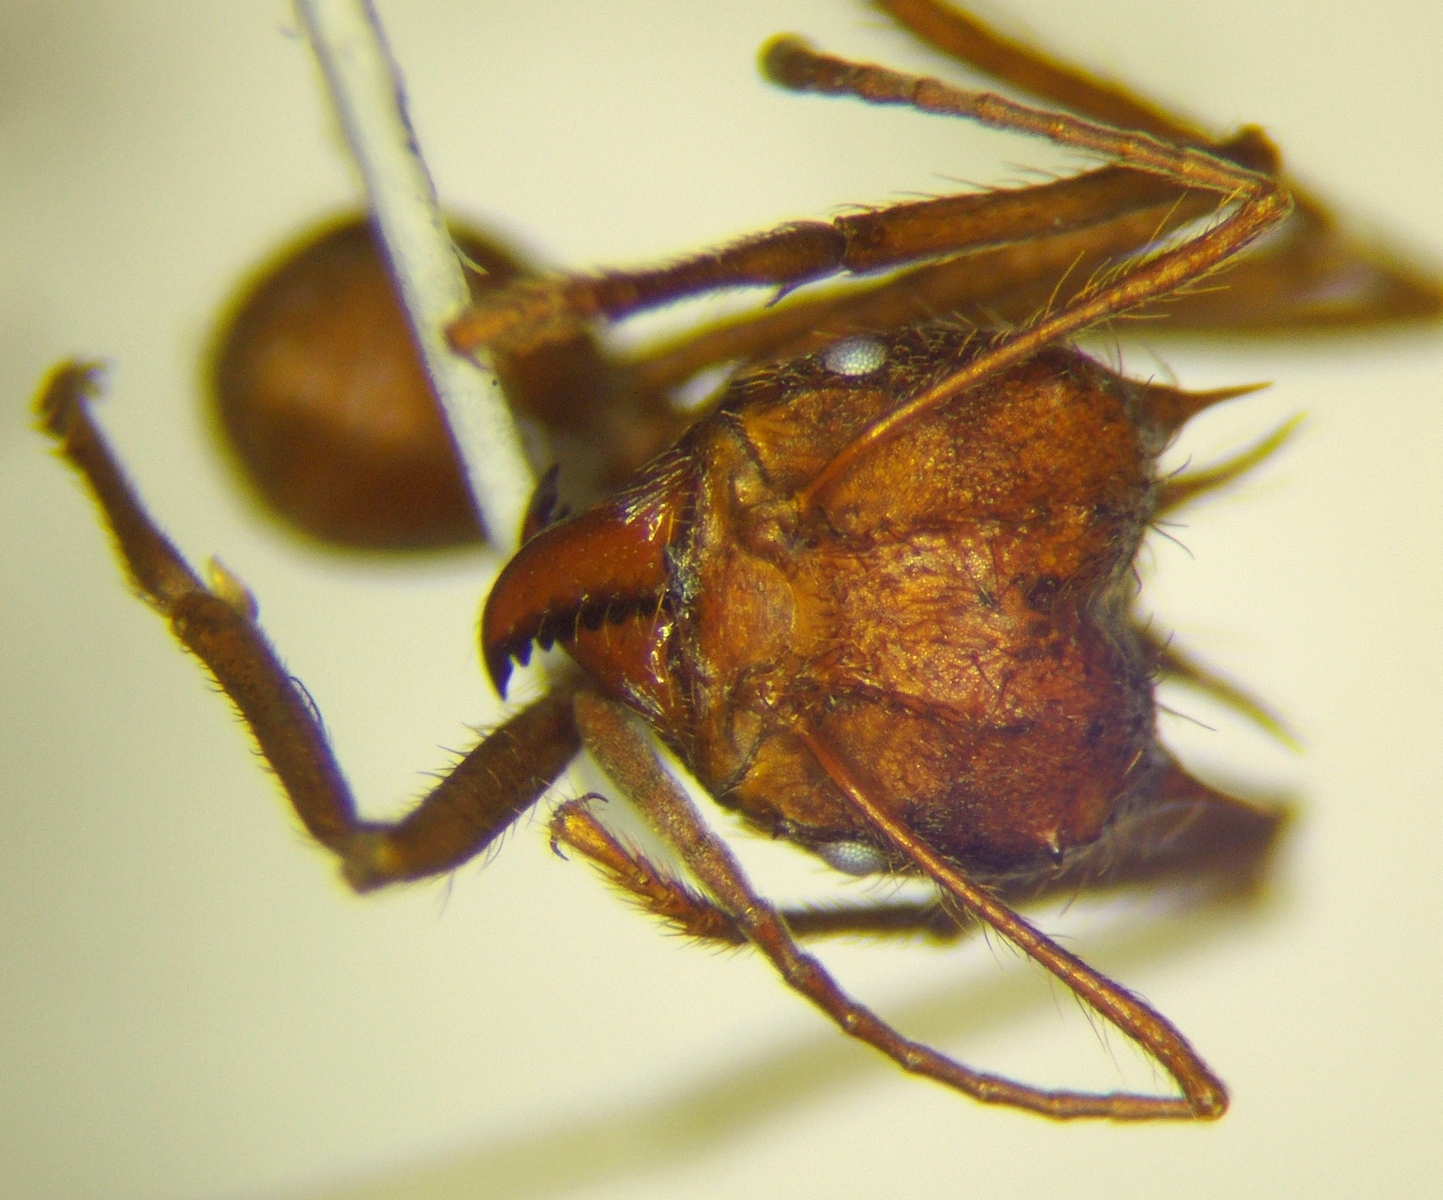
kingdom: Animalia
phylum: Arthropoda
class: Insecta
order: Hymenoptera
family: Formicidae
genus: Atta
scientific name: Atta mexicana
